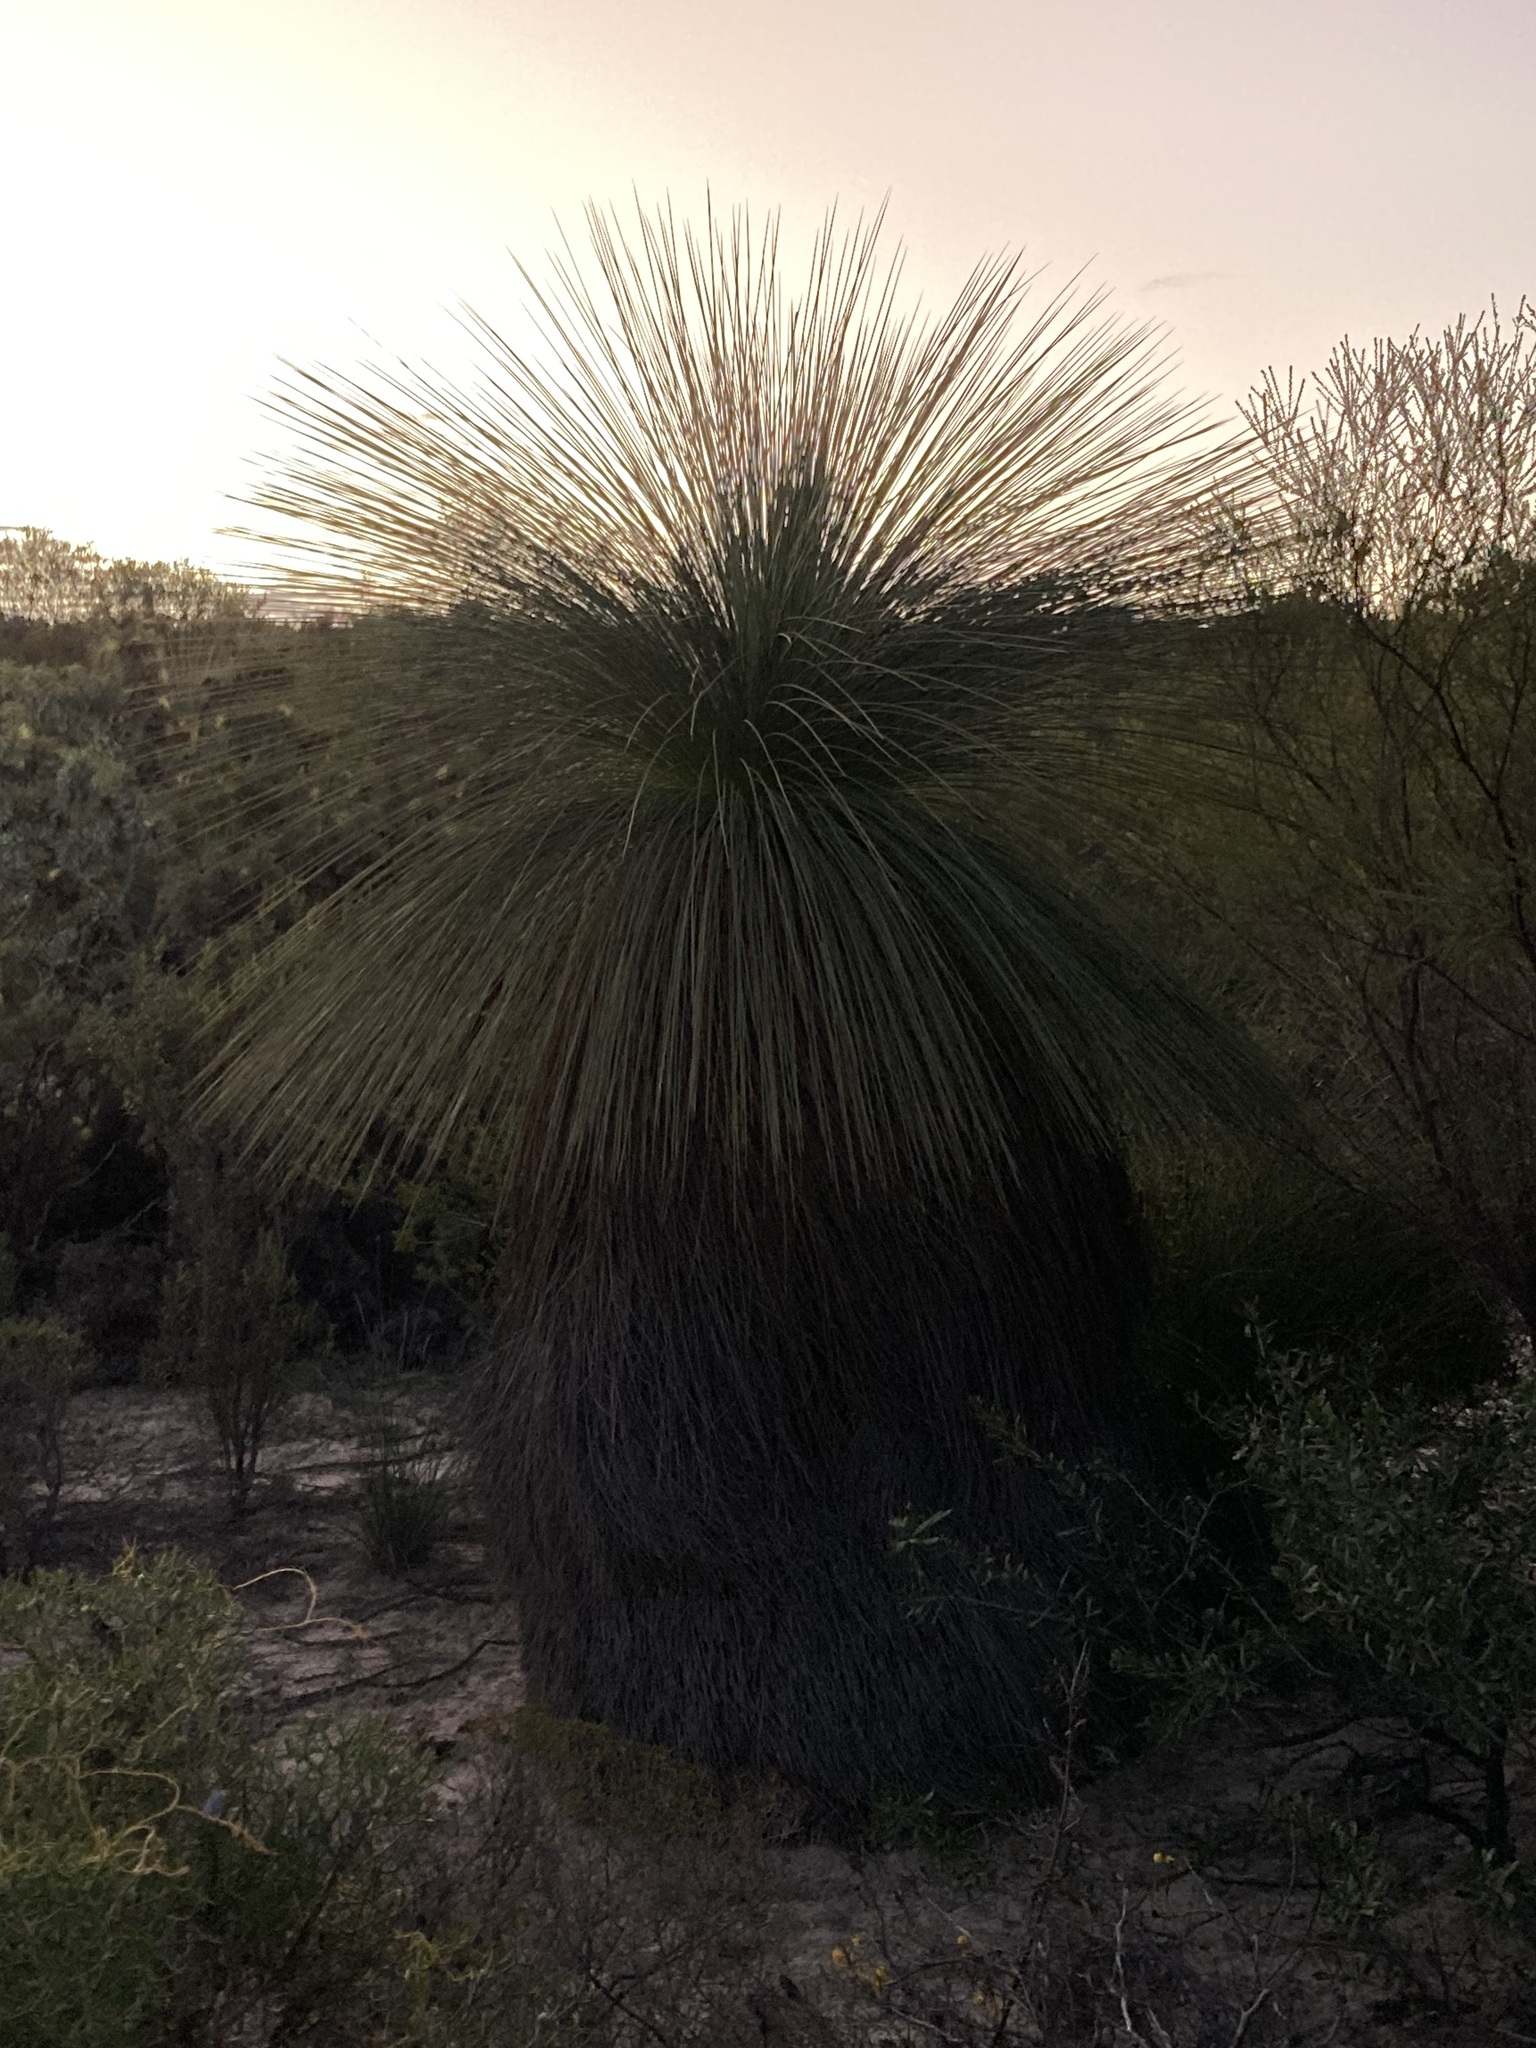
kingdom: Plantae
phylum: Tracheophyta
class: Liliopsida
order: Asparagales
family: Asphodelaceae
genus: Xanthorrhoea
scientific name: Xanthorrhoea drummondii
